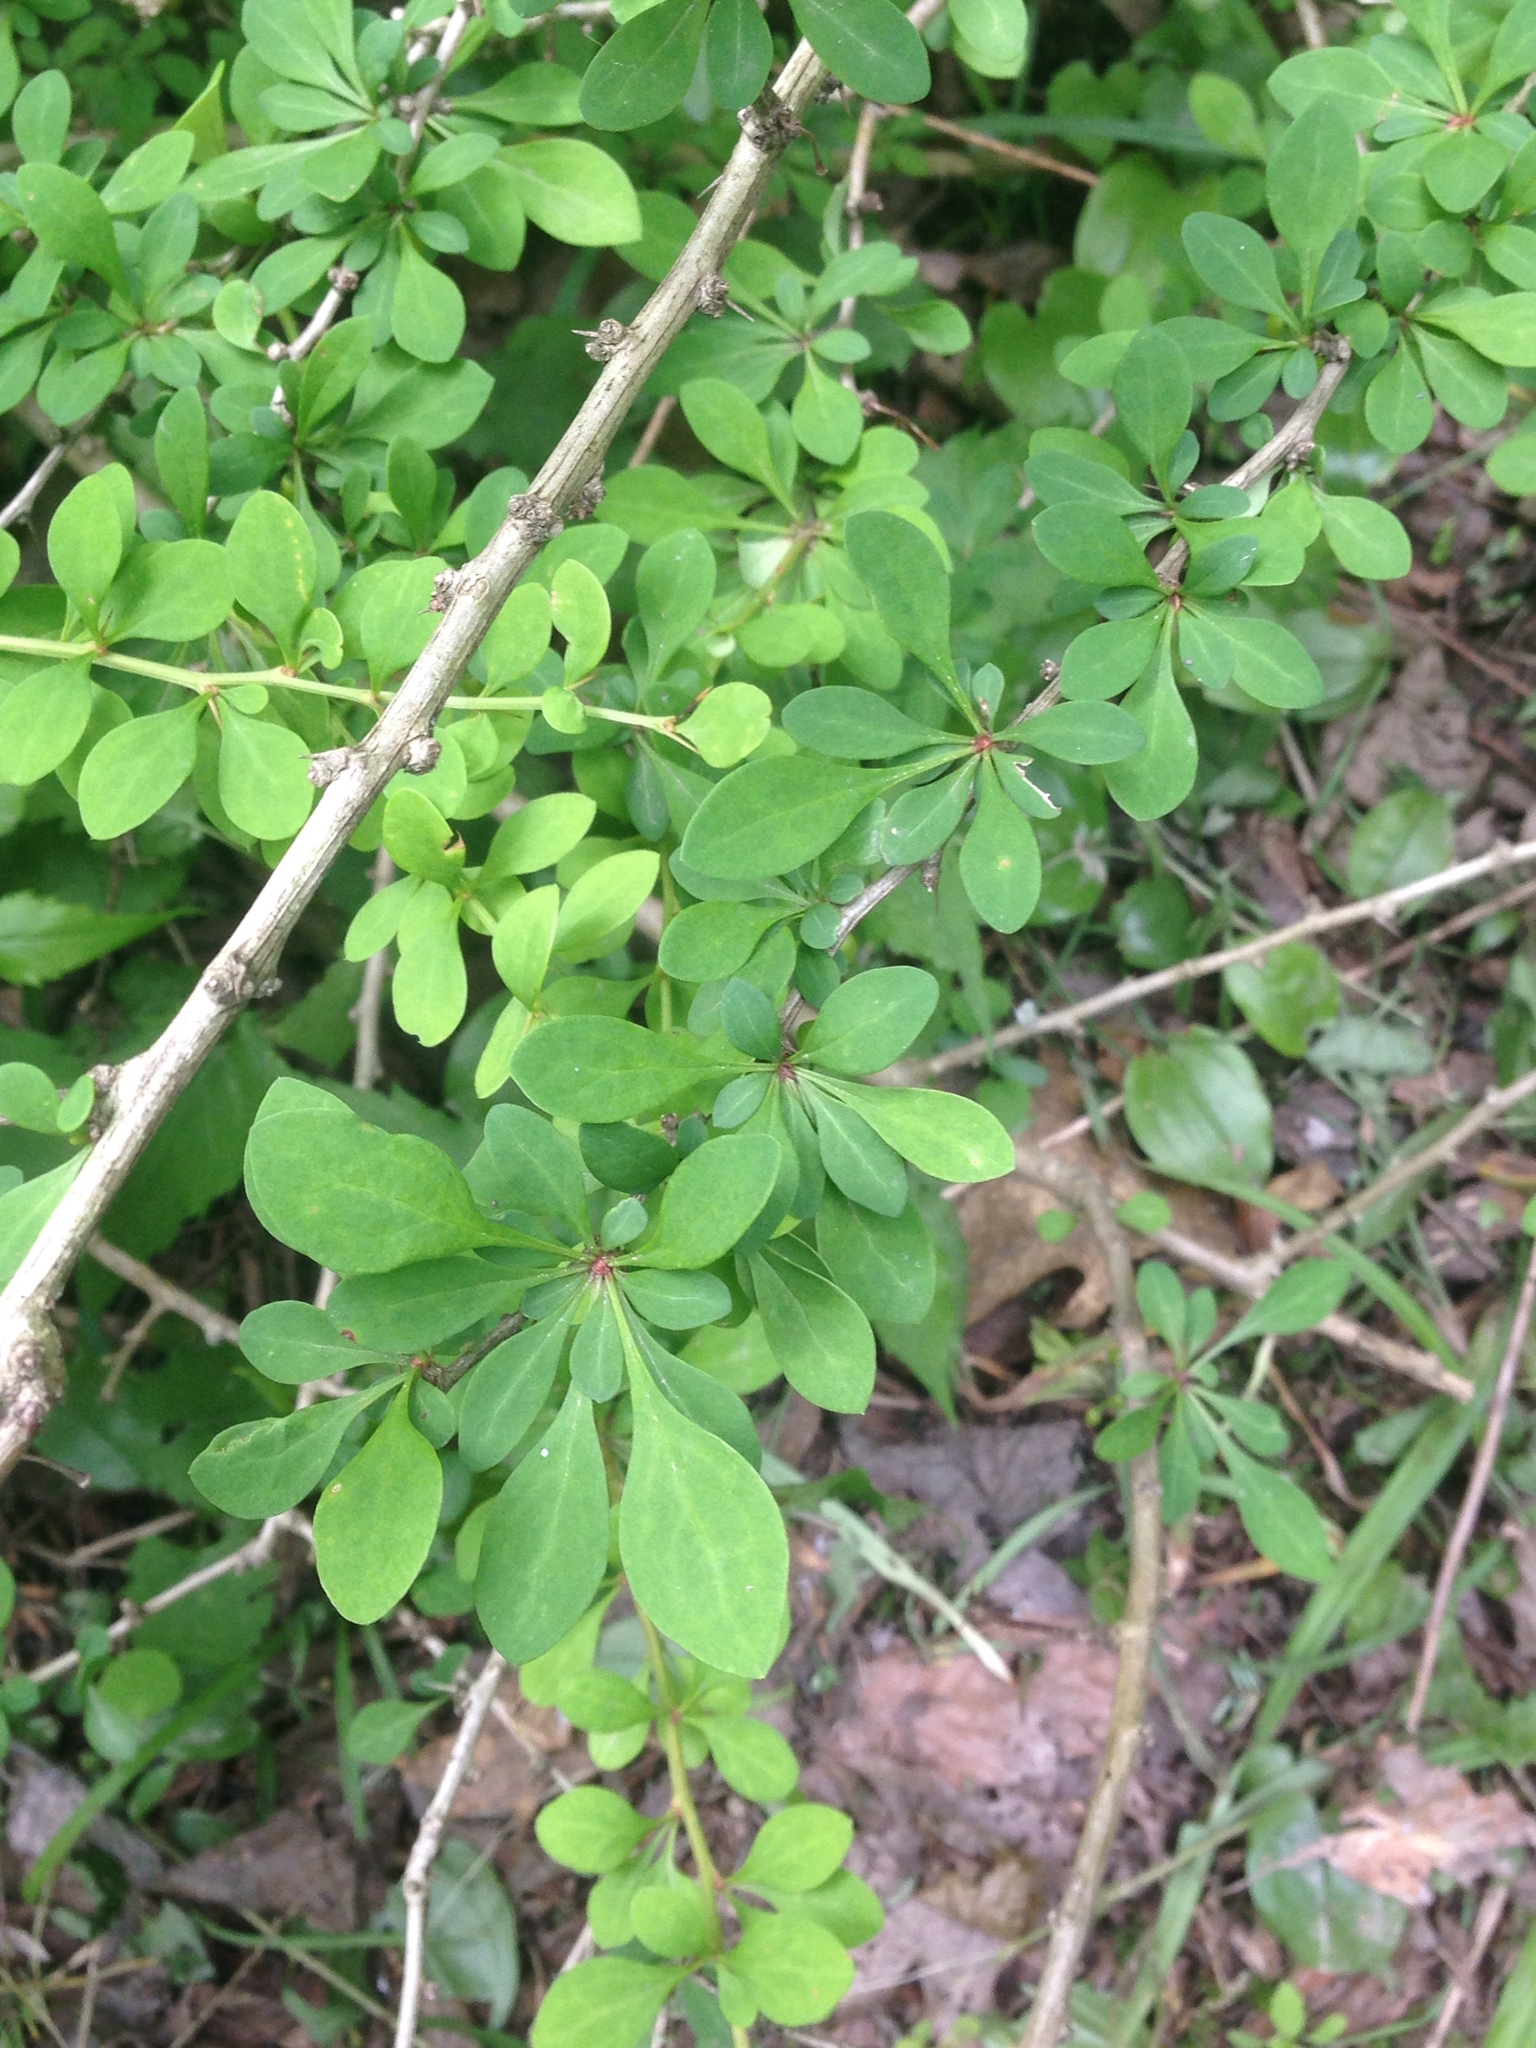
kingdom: Plantae
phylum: Tracheophyta
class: Magnoliopsida
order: Ranunculales
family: Berberidaceae
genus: Berberis
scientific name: Berberis thunbergii
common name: Japanese barberry
